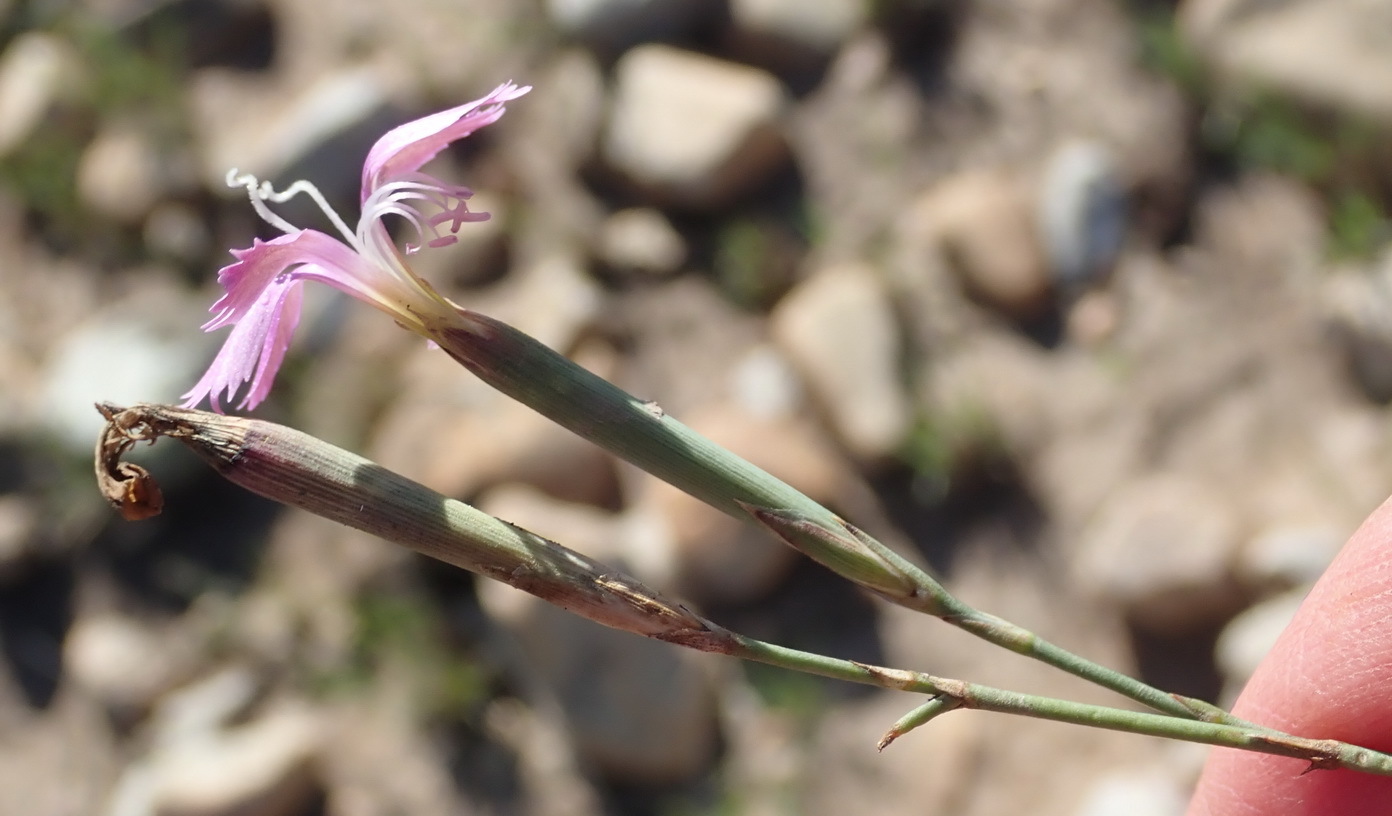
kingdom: Plantae
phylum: Tracheophyta
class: Magnoliopsida
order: Caryophyllales
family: Caryophyllaceae
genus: Dianthus
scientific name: Dianthus thunbergii
